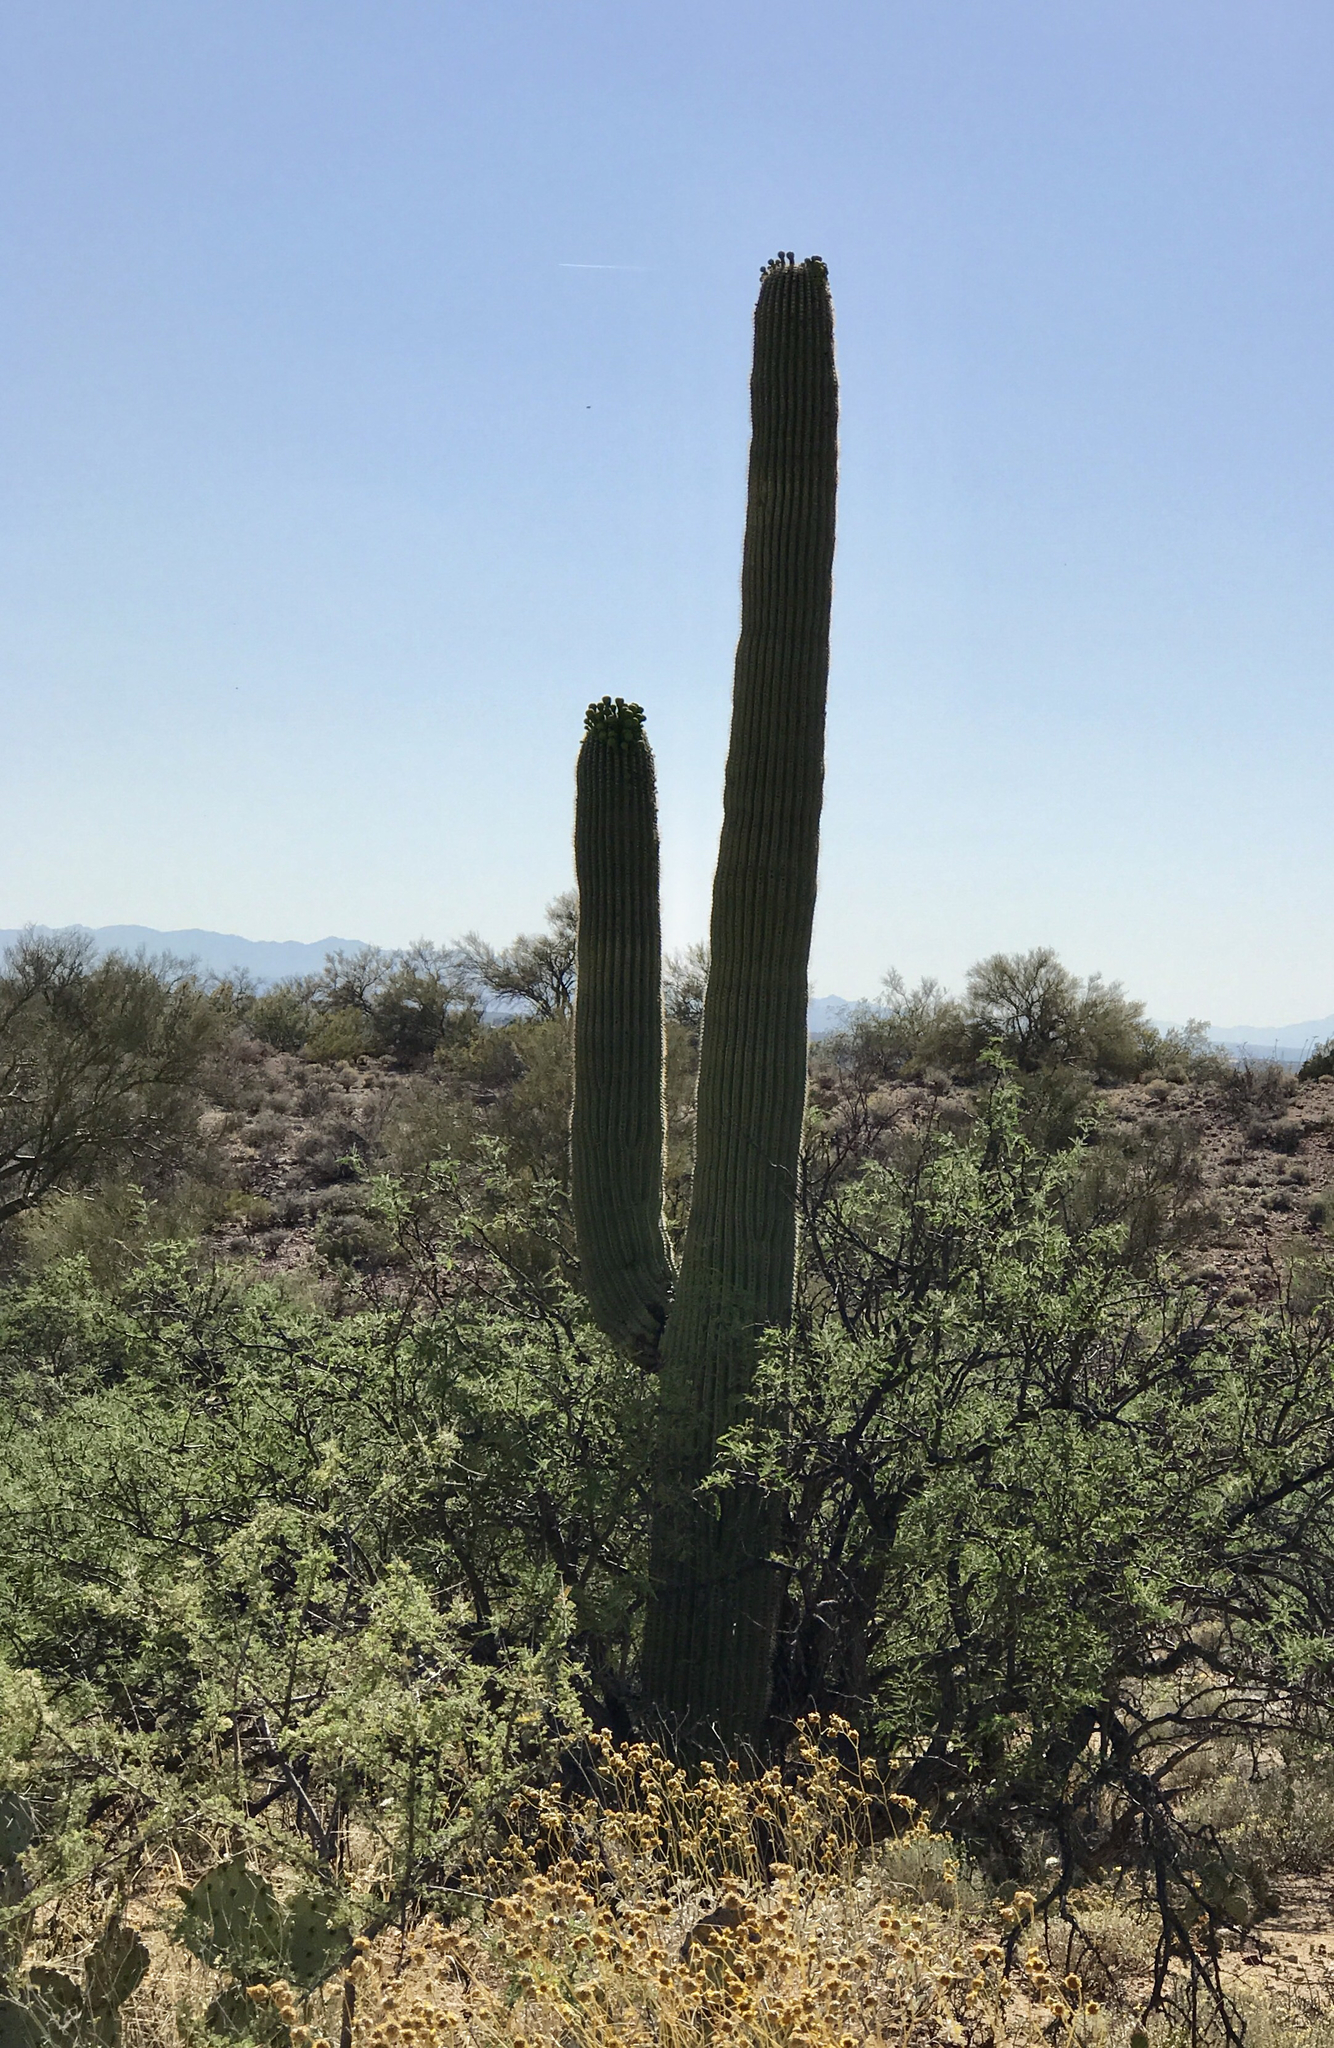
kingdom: Plantae
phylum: Tracheophyta
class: Magnoliopsida
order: Caryophyllales
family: Cactaceae
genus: Carnegiea
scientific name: Carnegiea gigantea
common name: Saguaro
